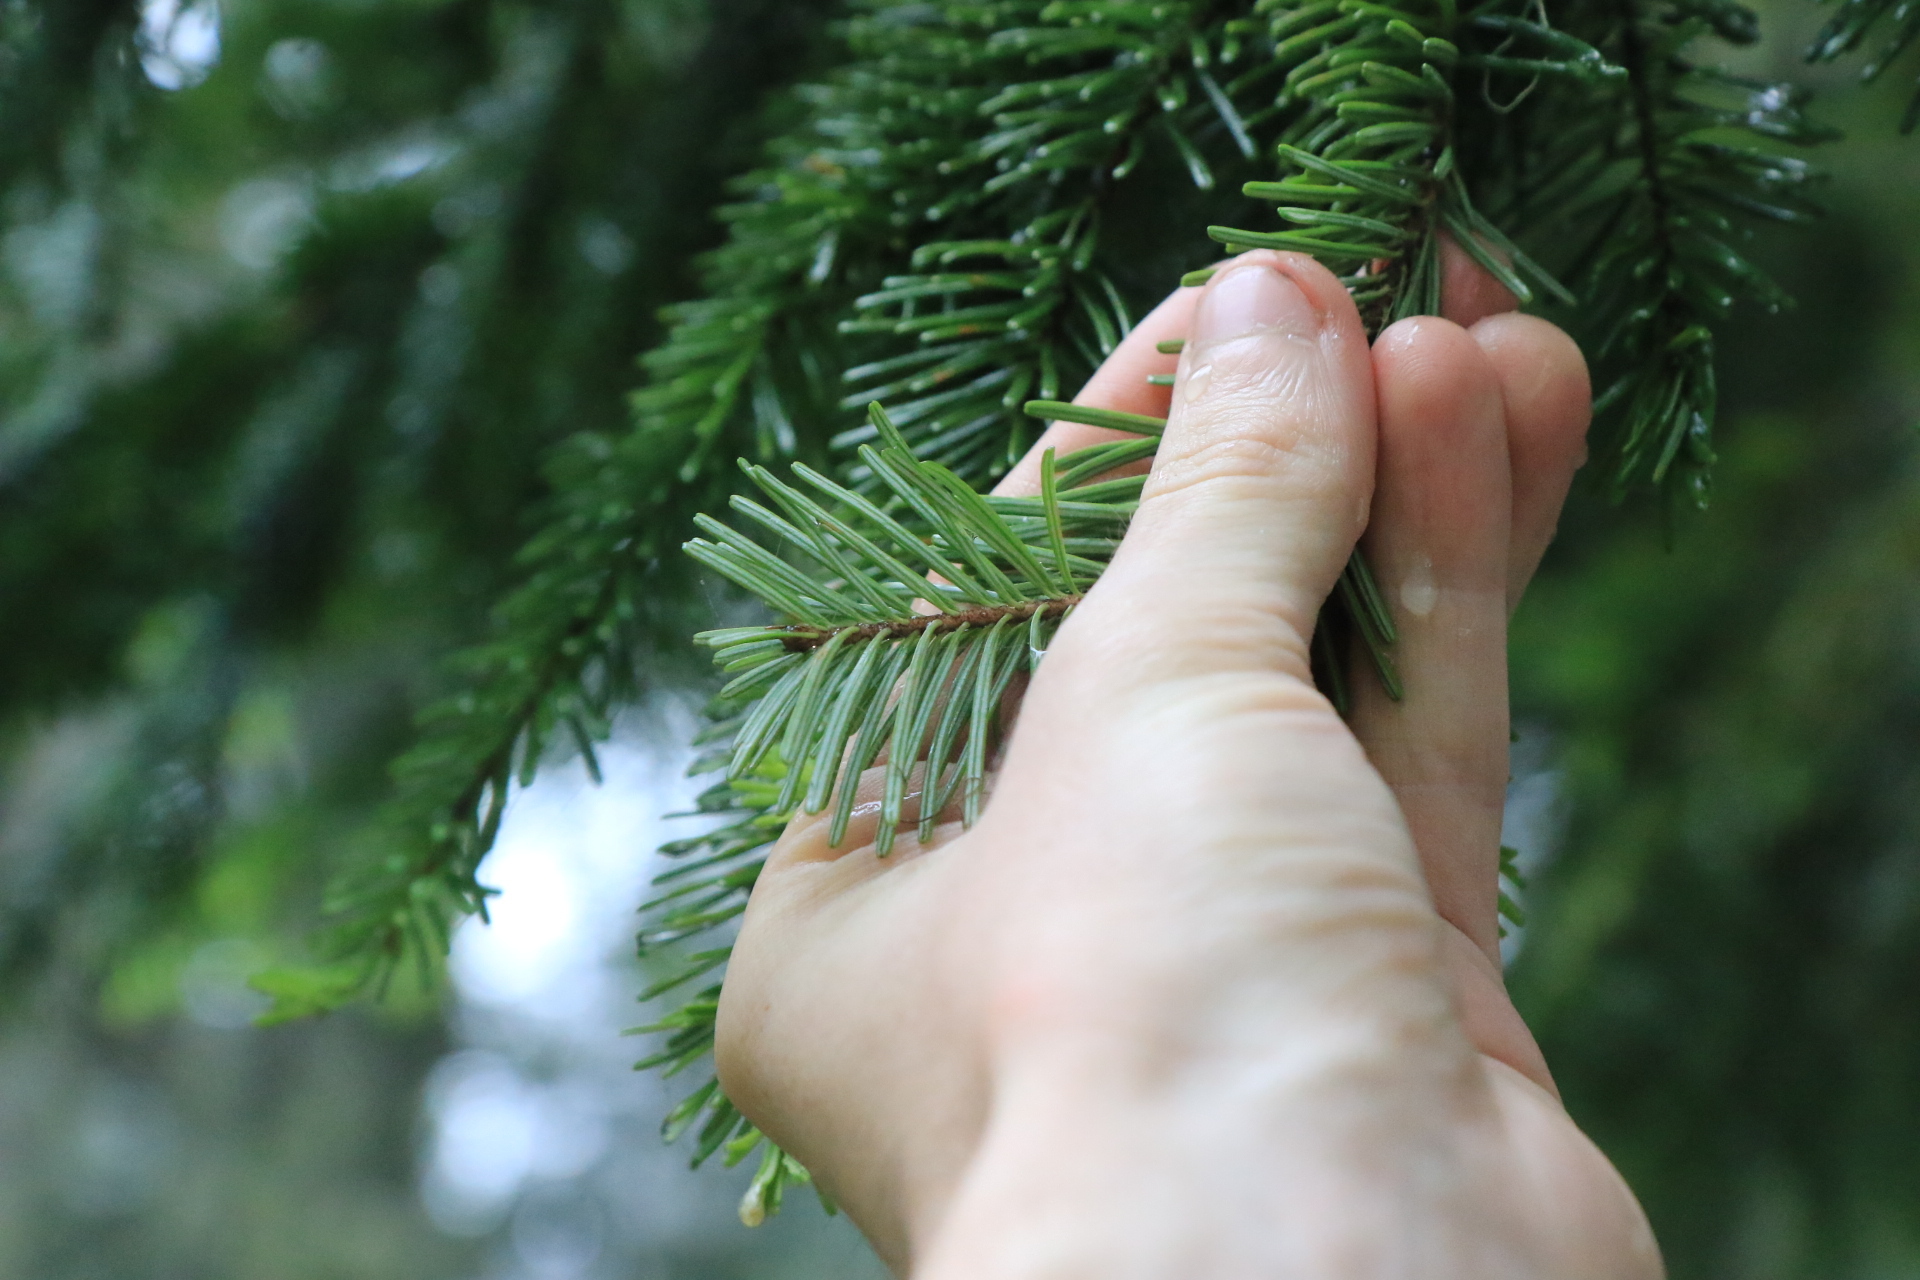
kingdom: Plantae
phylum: Tracheophyta
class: Pinopsida
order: Pinales
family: Pinaceae
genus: Abies
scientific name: Abies amabilis
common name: Pacific silver fir
